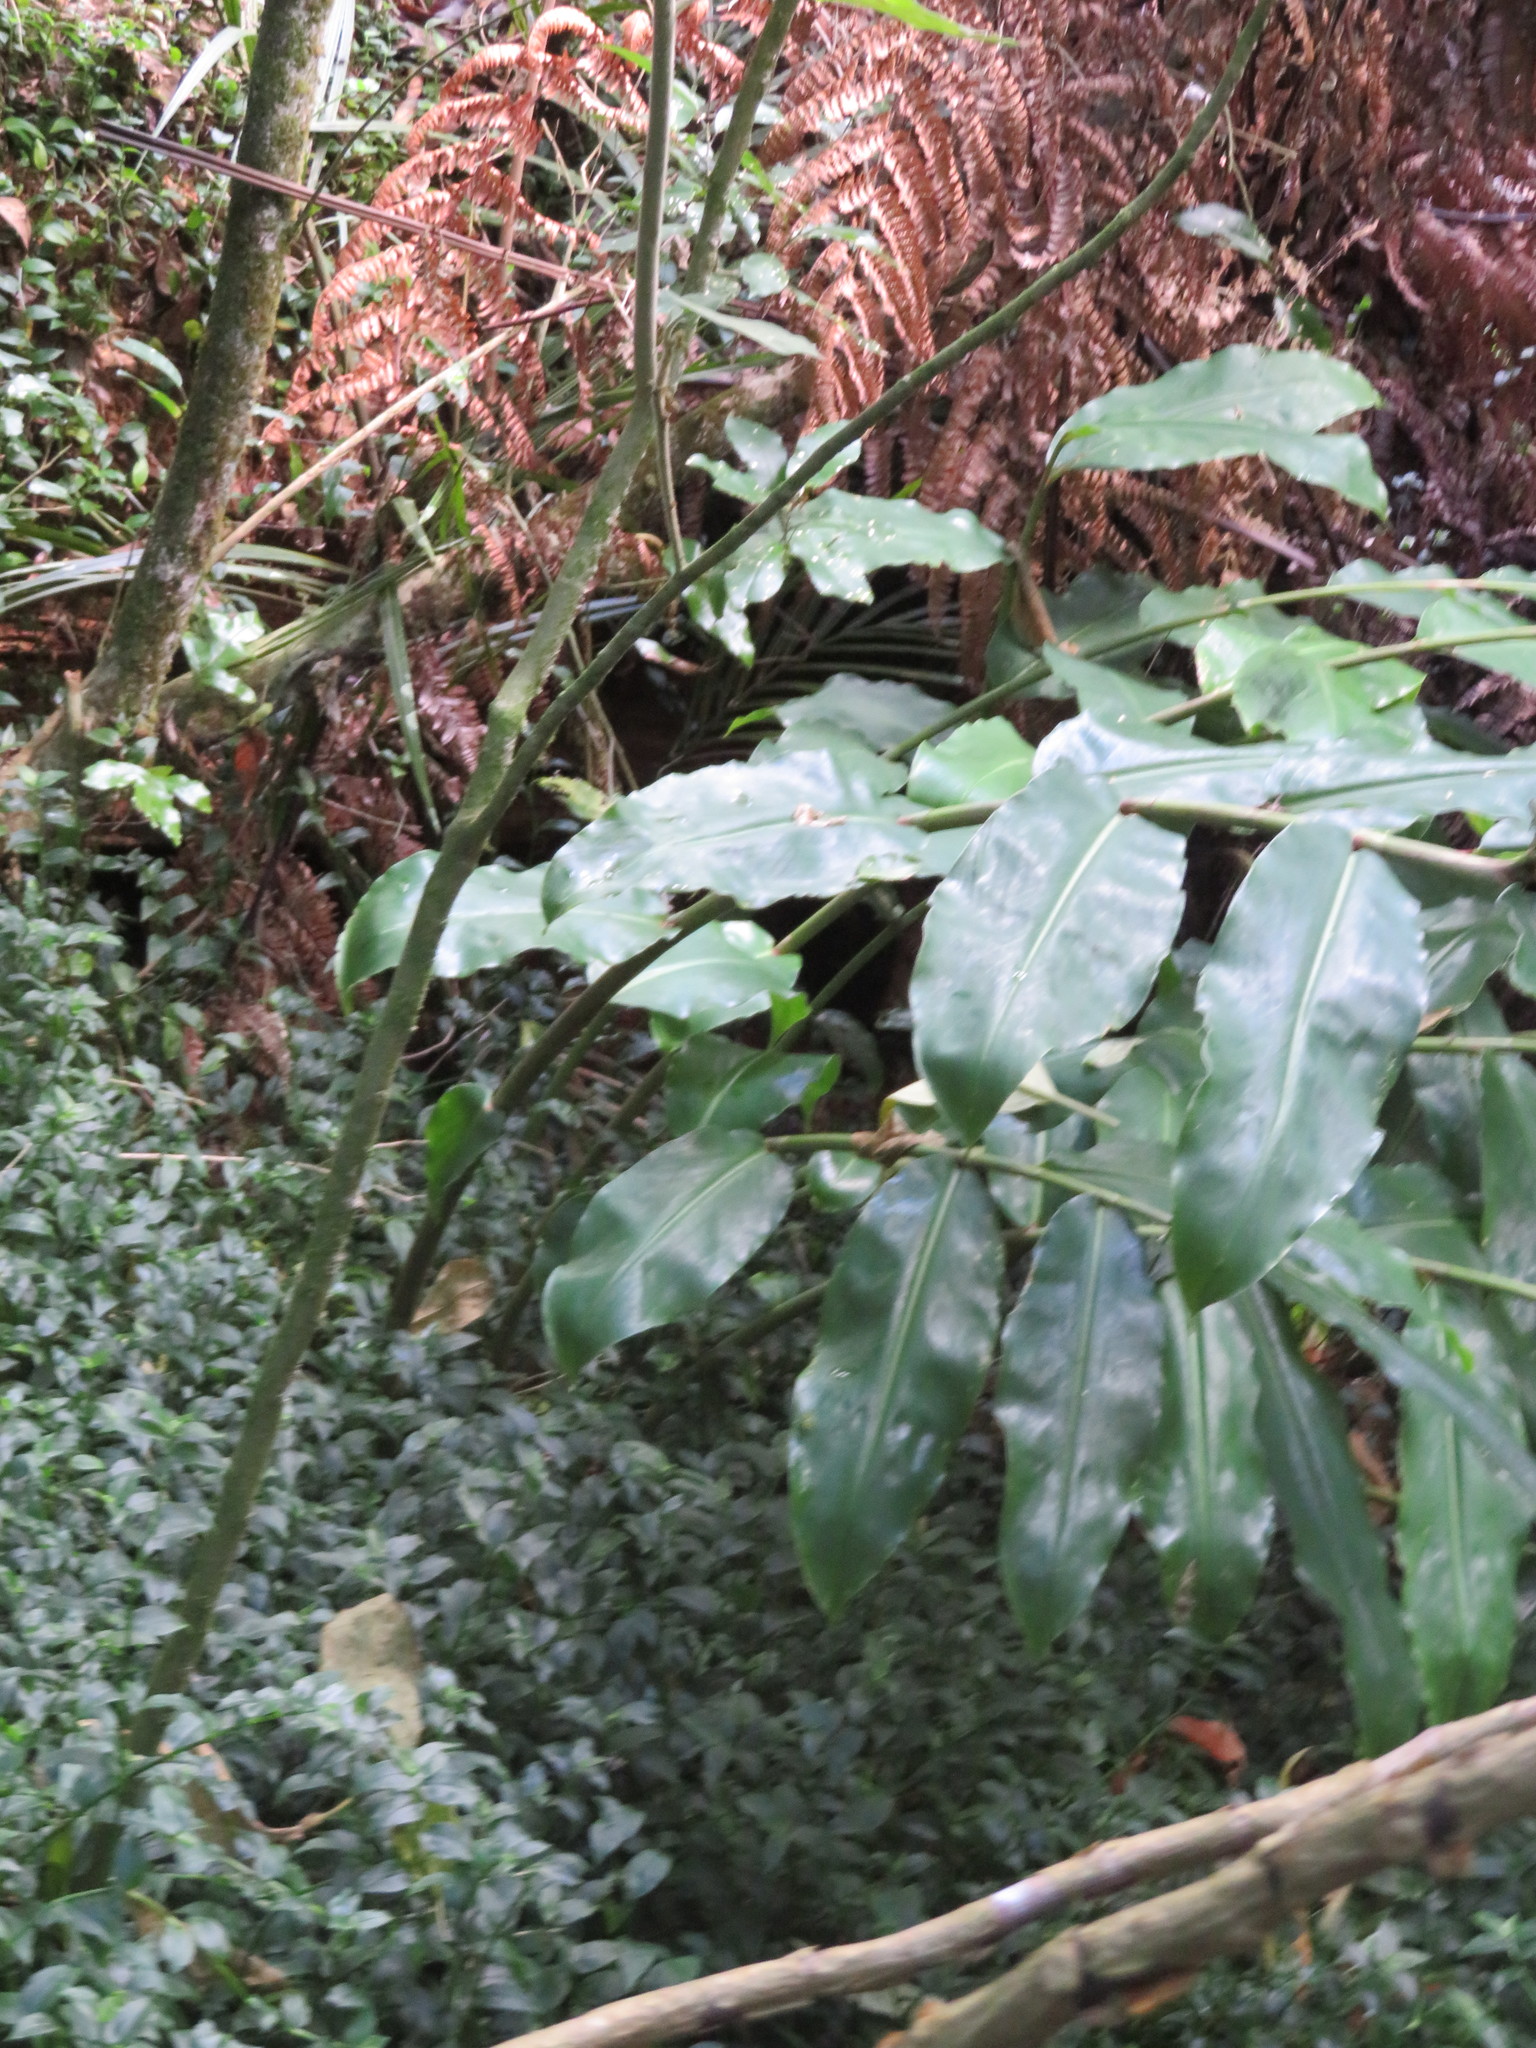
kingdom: Plantae
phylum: Tracheophyta
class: Liliopsida
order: Zingiberales
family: Zingiberaceae
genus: Hedychium
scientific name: Hedychium gardnerianum
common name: Himalayan ginger
